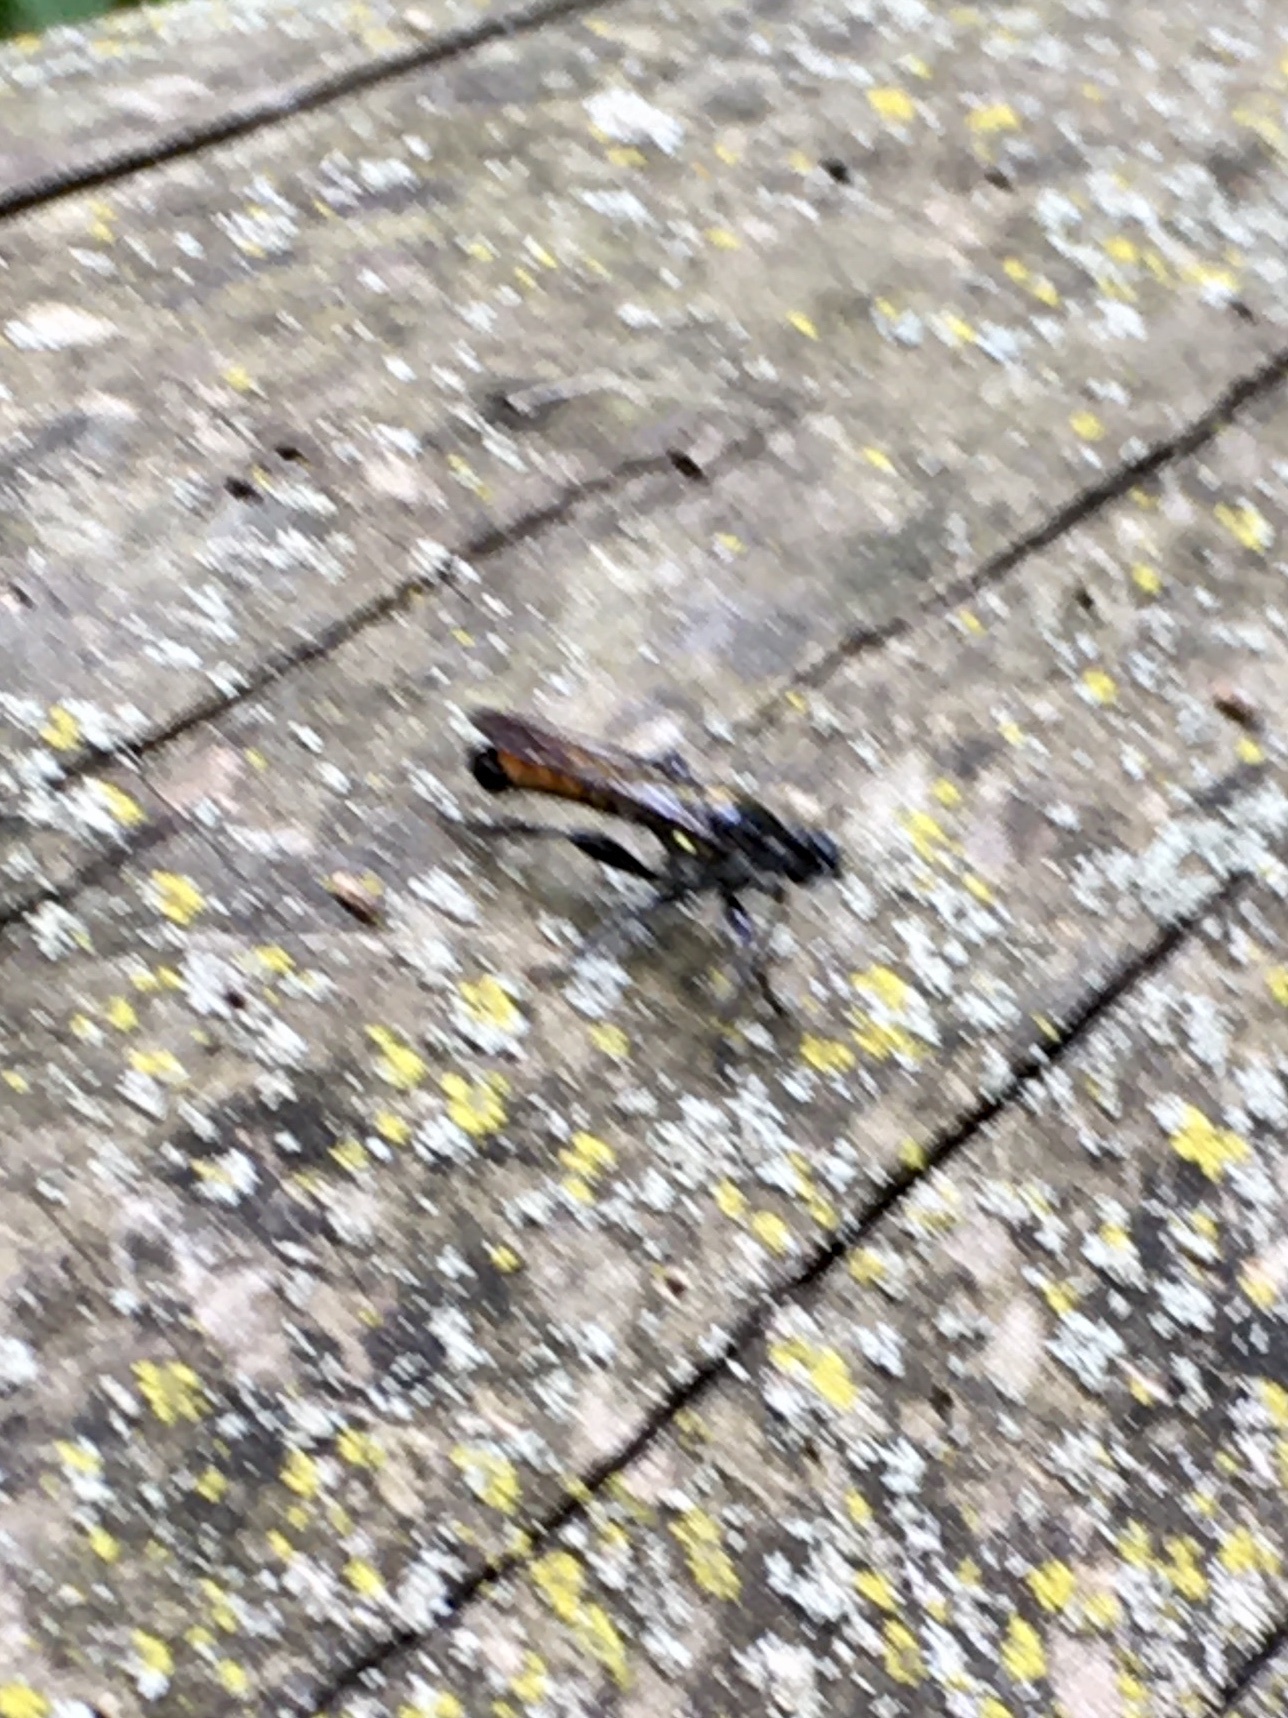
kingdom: Animalia
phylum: Arthropoda
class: Insecta
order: Diptera
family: Asilidae
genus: Laphria
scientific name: Laphria index
